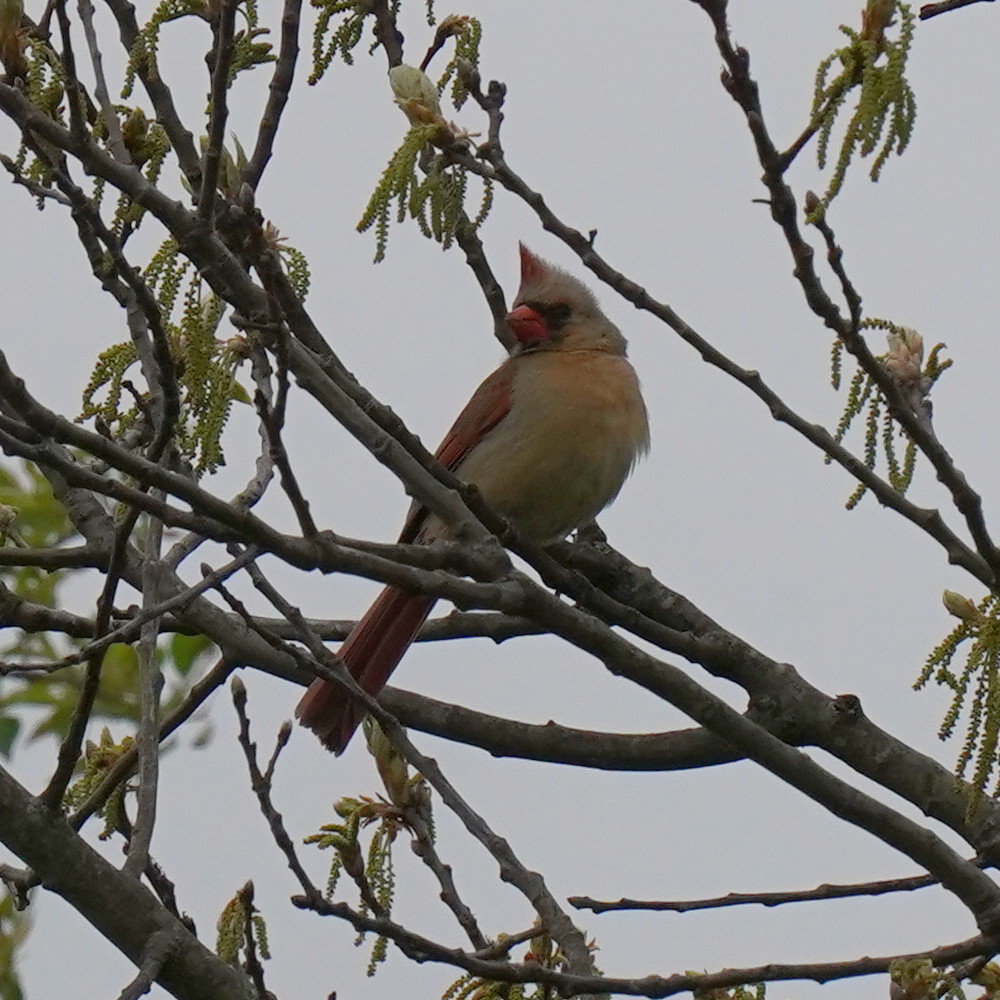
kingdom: Animalia
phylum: Chordata
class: Aves
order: Passeriformes
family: Cardinalidae
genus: Cardinalis
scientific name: Cardinalis cardinalis
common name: Northern cardinal
